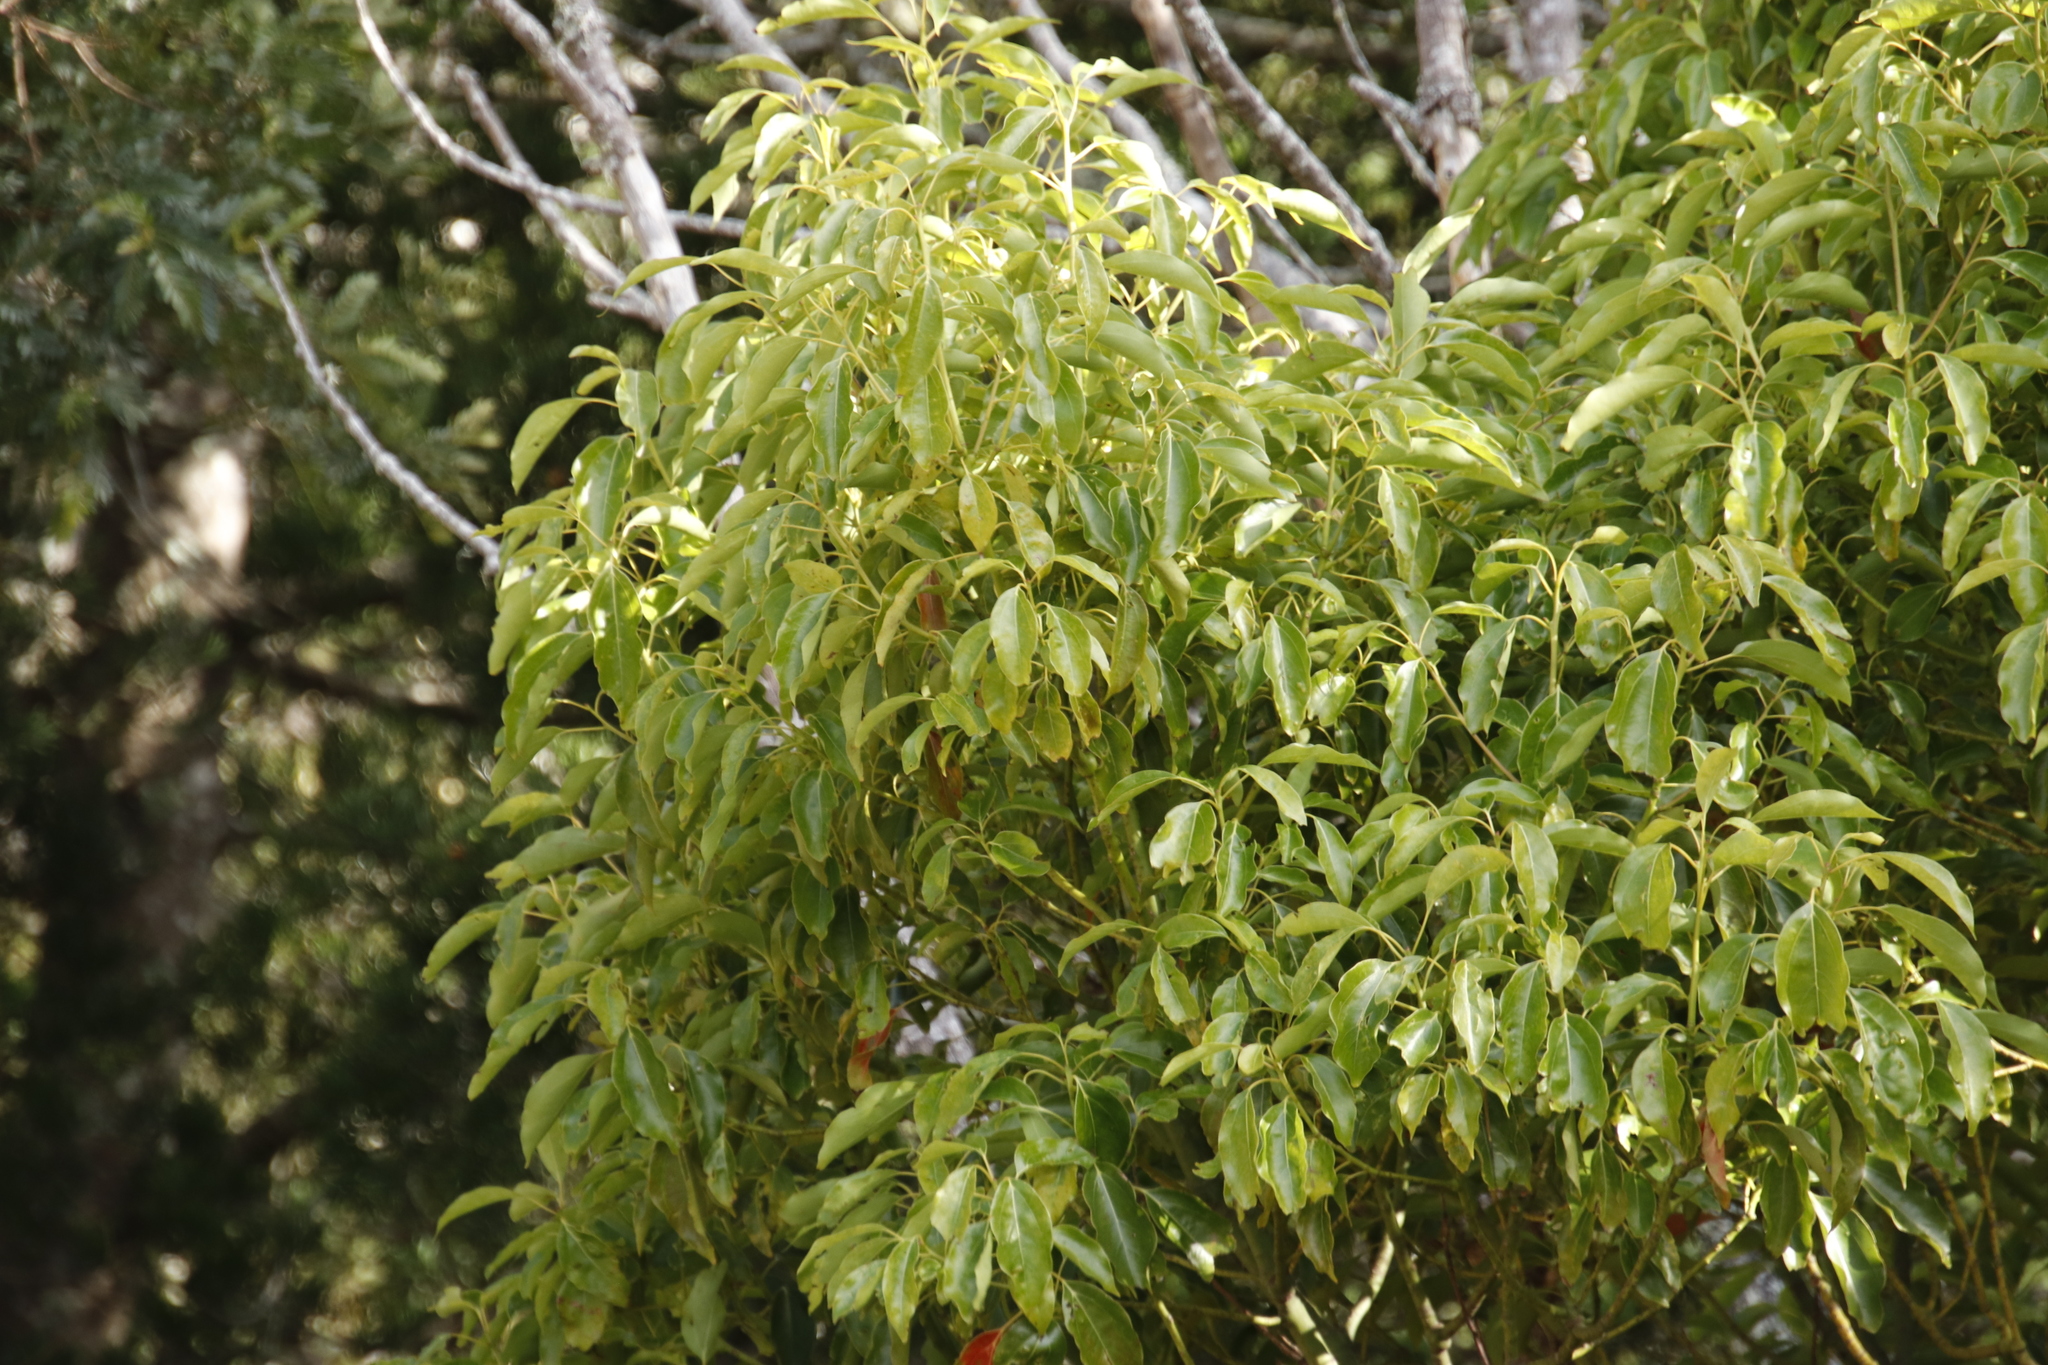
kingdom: Plantae
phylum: Tracheophyta
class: Magnoliopsida
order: Laurales
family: Lauraceae
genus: Cinnamomum
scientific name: Cinnamomum camphora
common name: Camphortree
